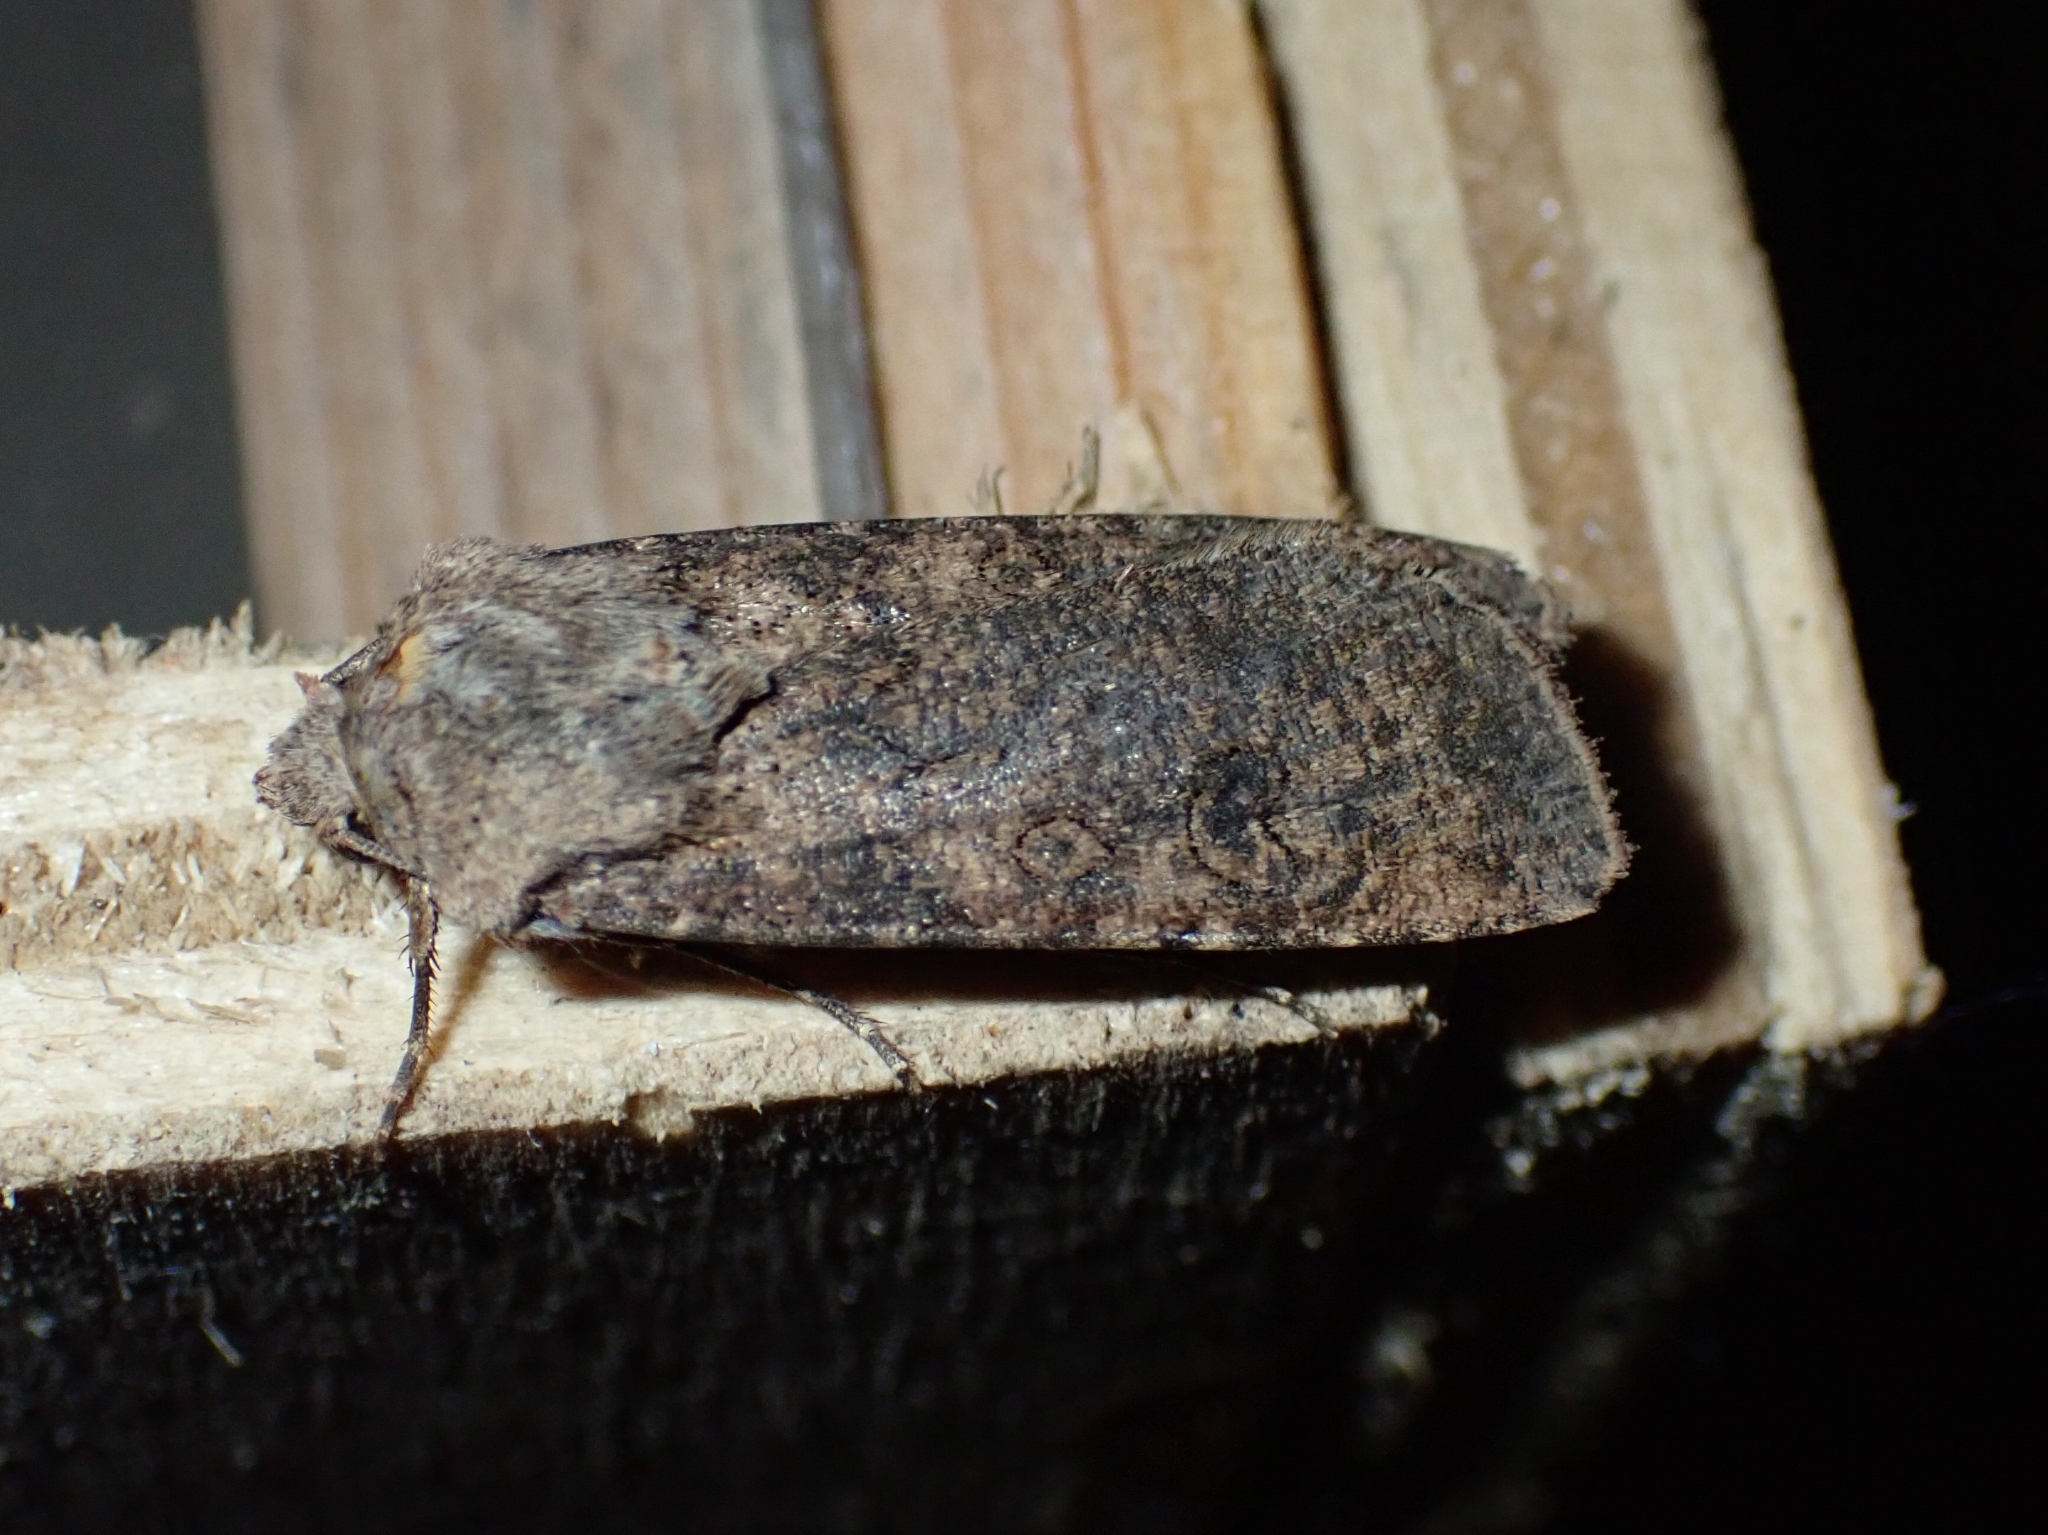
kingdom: Animalia
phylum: Arthropoda
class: Insecta
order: Lepidoptera
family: Noctuidae
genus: Agrotis
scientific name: Agrotis segetum
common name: Turnip moth
